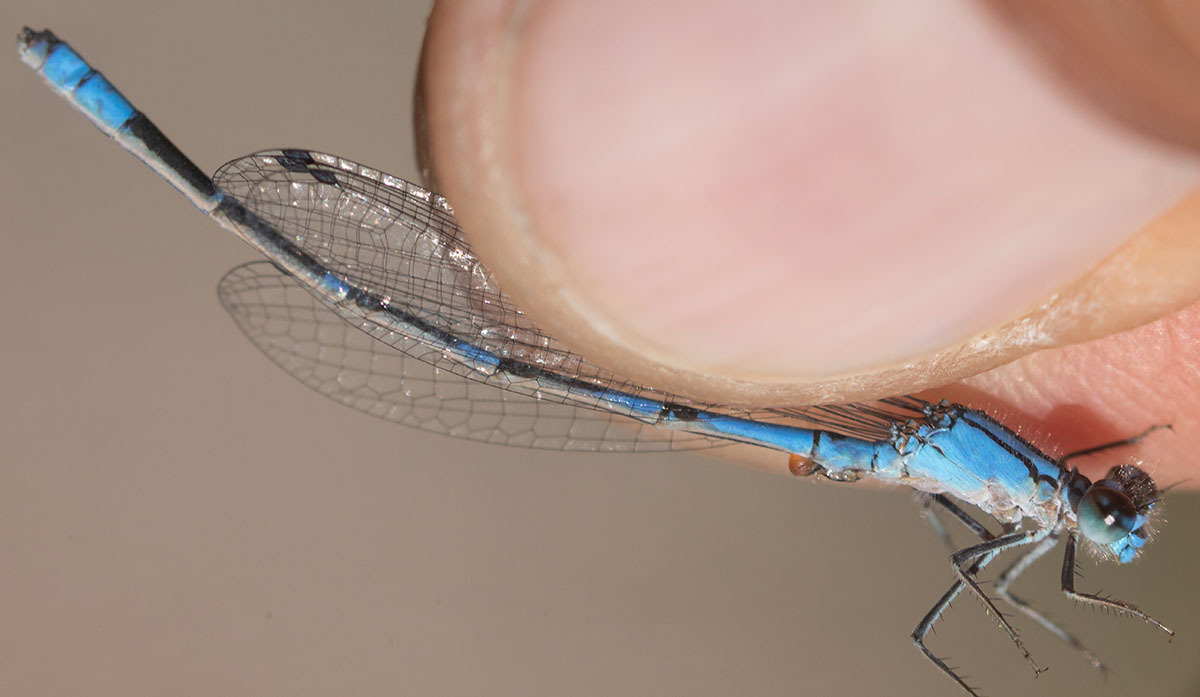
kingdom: Animalia
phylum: Arthropoda
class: Insecta
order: Odonata
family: Coenagrionidae
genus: Enallagma
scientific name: Enallagma praevarum
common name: Arroyo bluet
